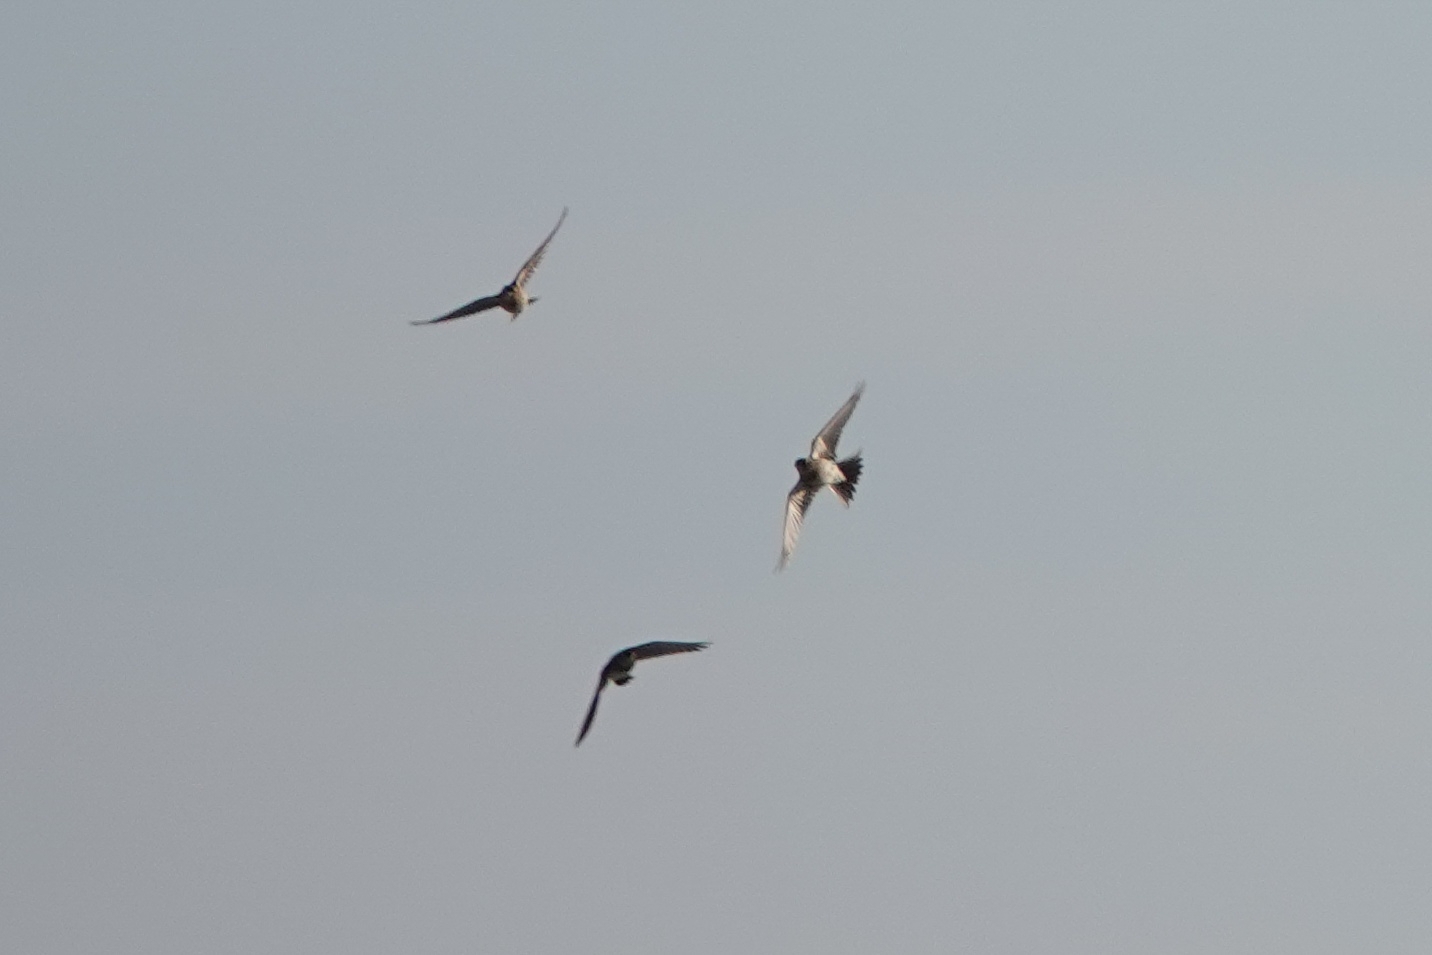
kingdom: Animalia
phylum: Chordata
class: Aves
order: Passeriformes
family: Alaudidae
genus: Alauda
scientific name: Alauda arvensis
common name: Eurasian skylark
